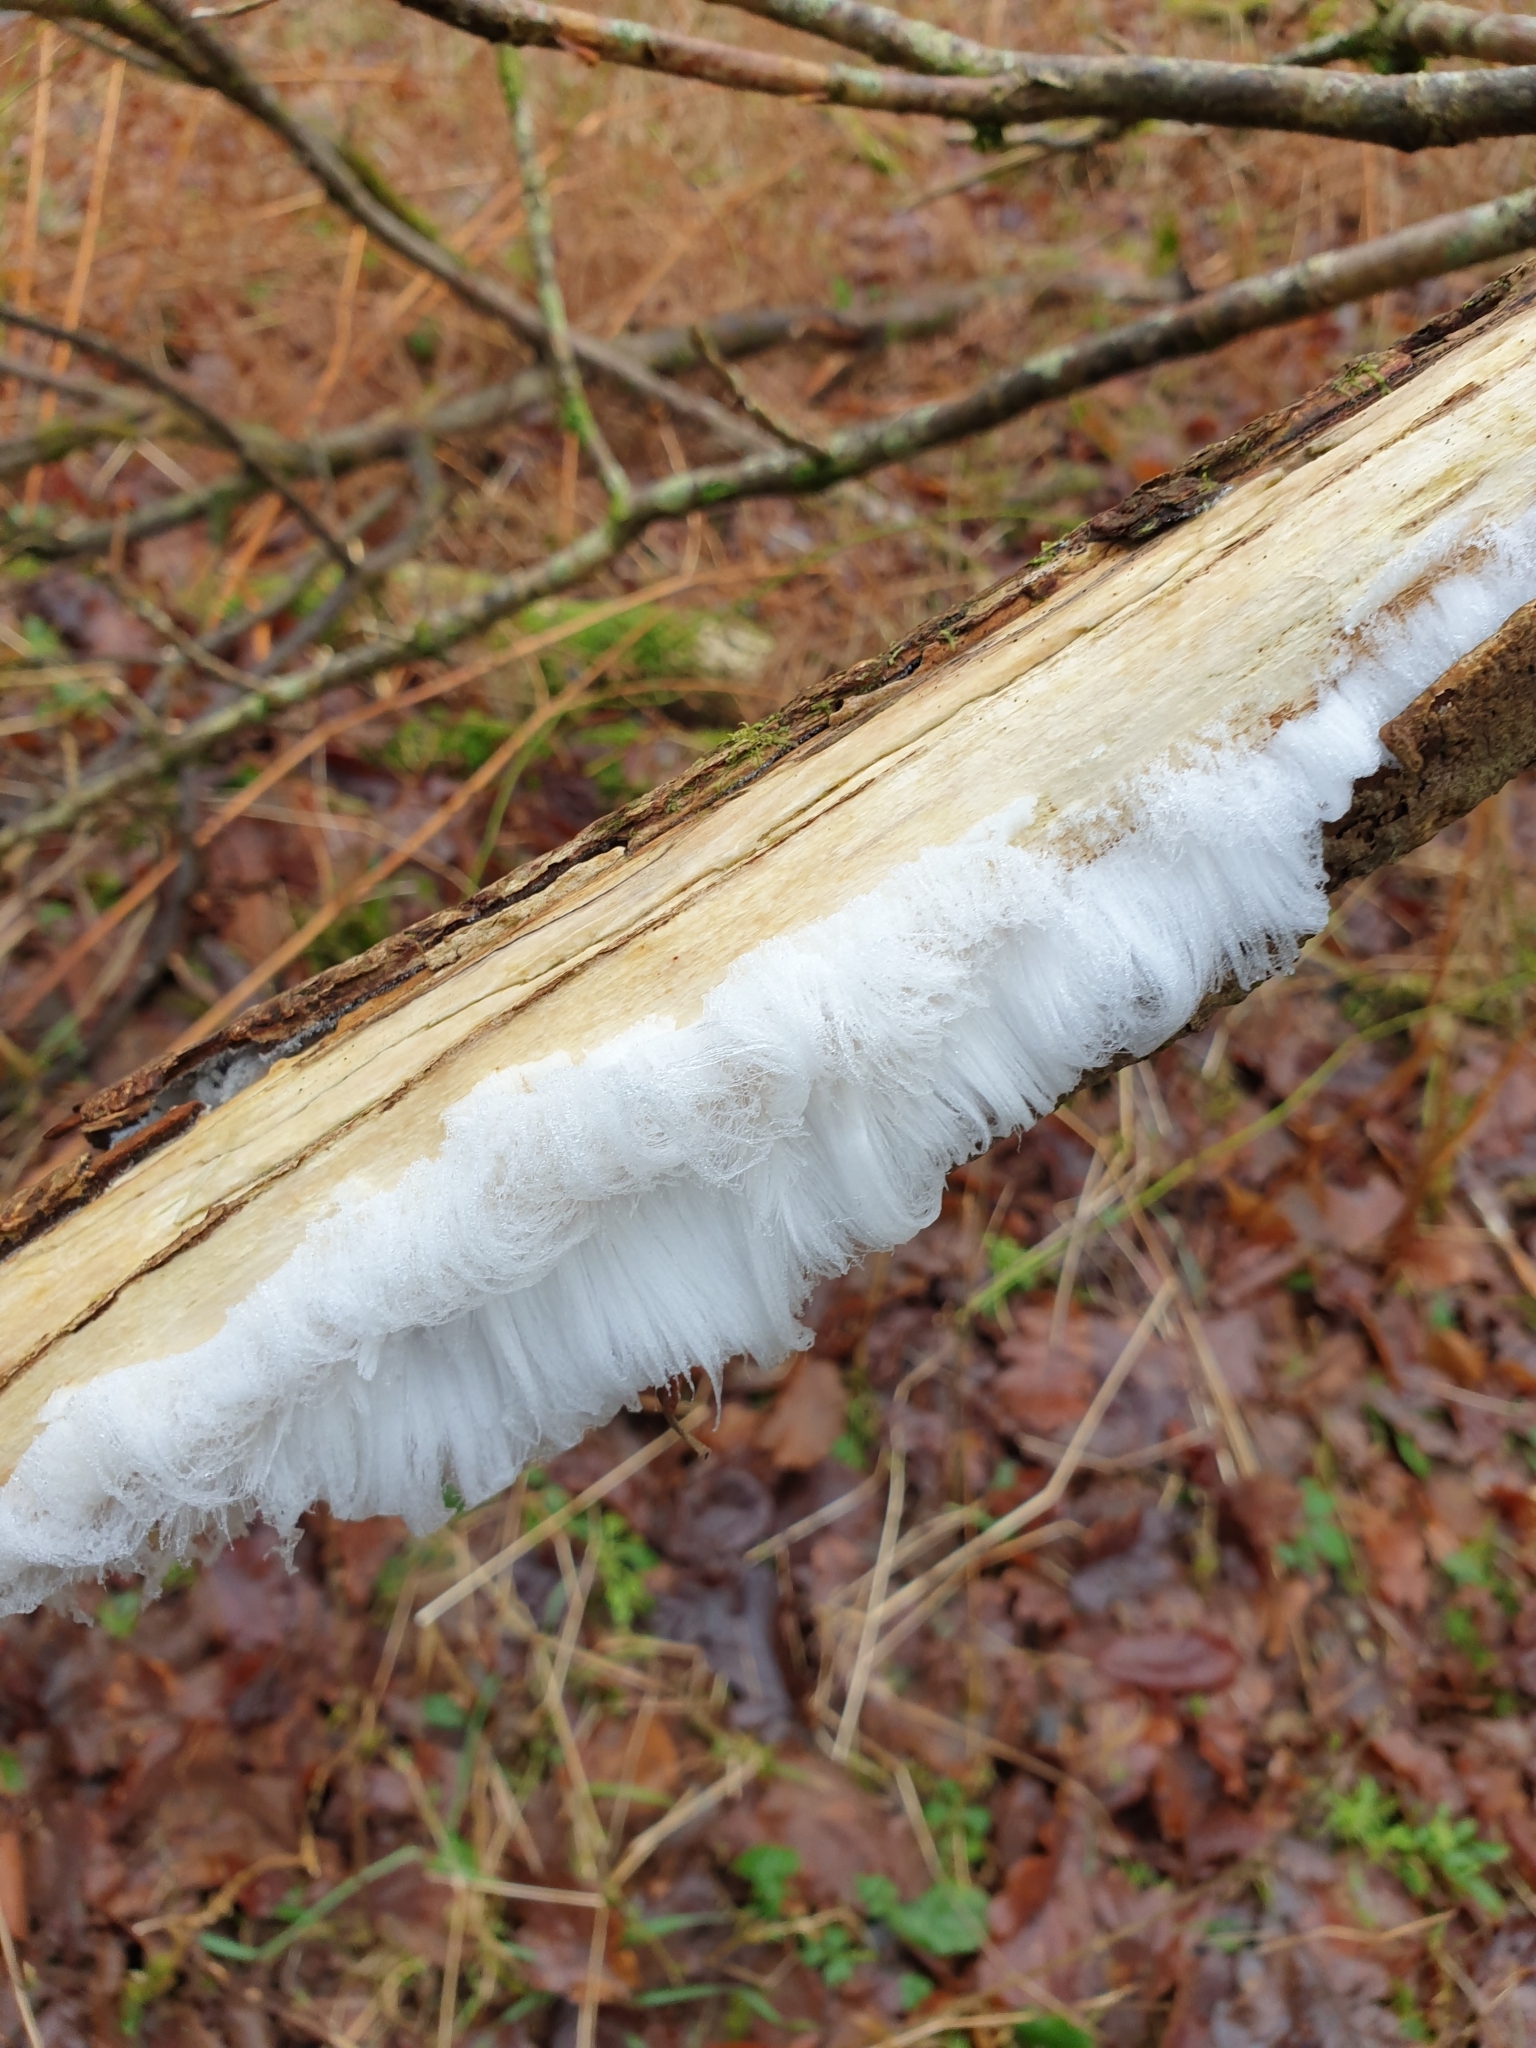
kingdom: Fungi
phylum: Basidiomycota
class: Agaricomycetes
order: Auriculariales
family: Auriculariaceae
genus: Exidiopsis
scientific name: Exidiopsis effusa
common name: Hair ice crust
